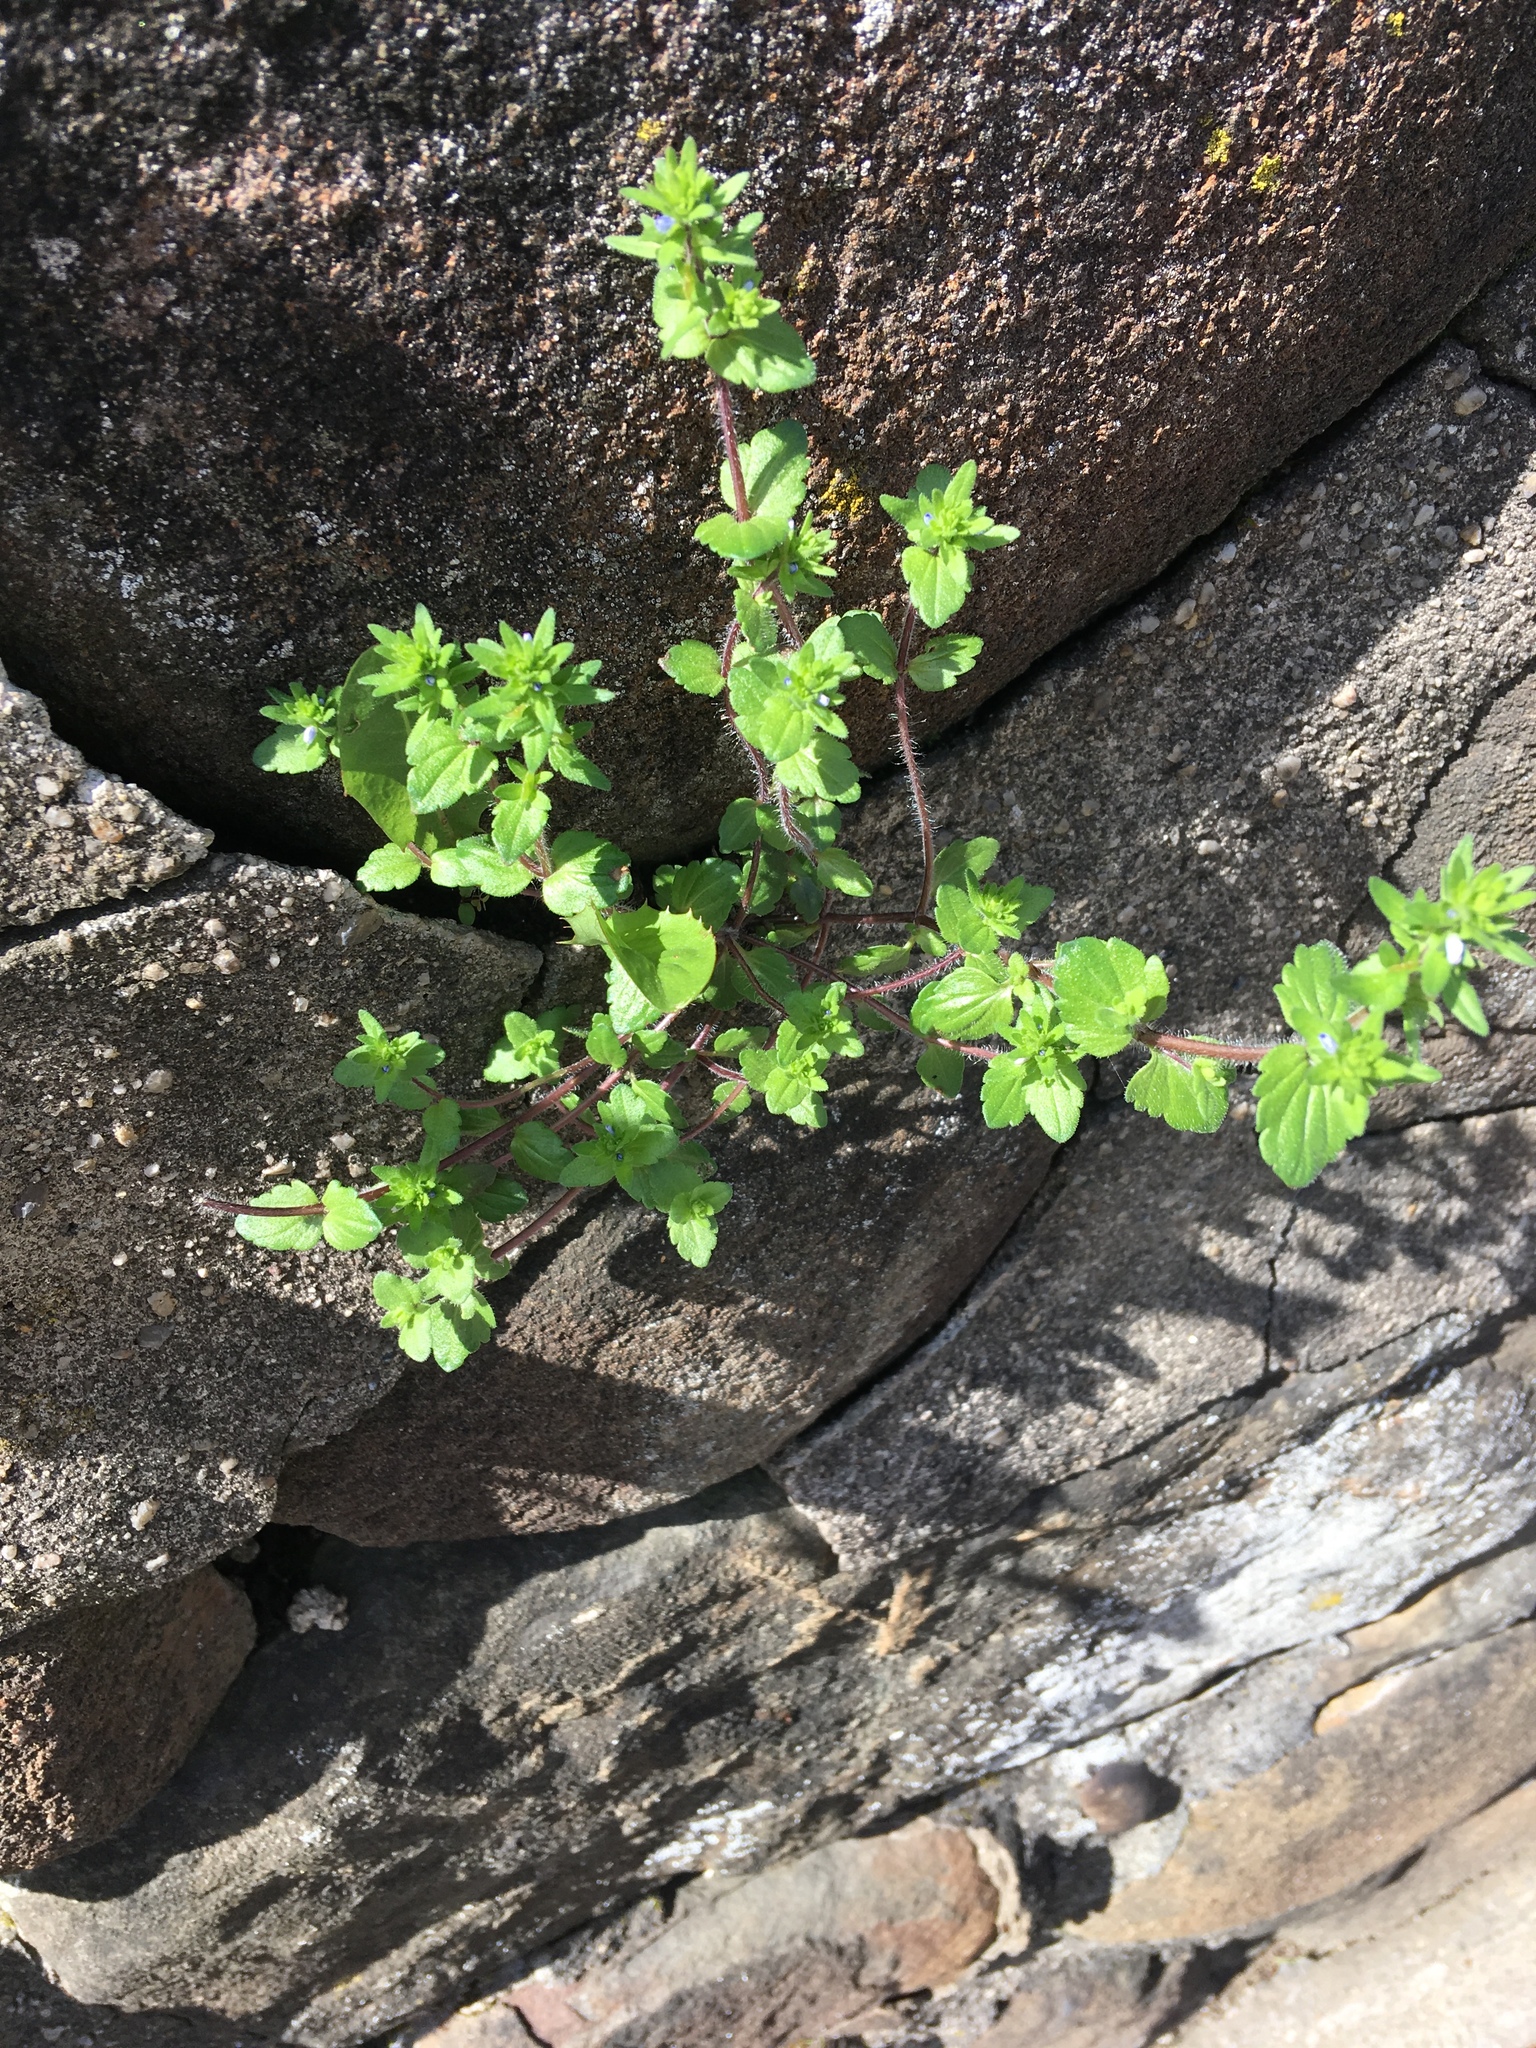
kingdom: Plantae
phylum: Tracheophyta
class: Magnoliopsida
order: Lamiales
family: Plantaginaceae
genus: Veronica
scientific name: Veronica arvensis
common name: Corn speedwell
